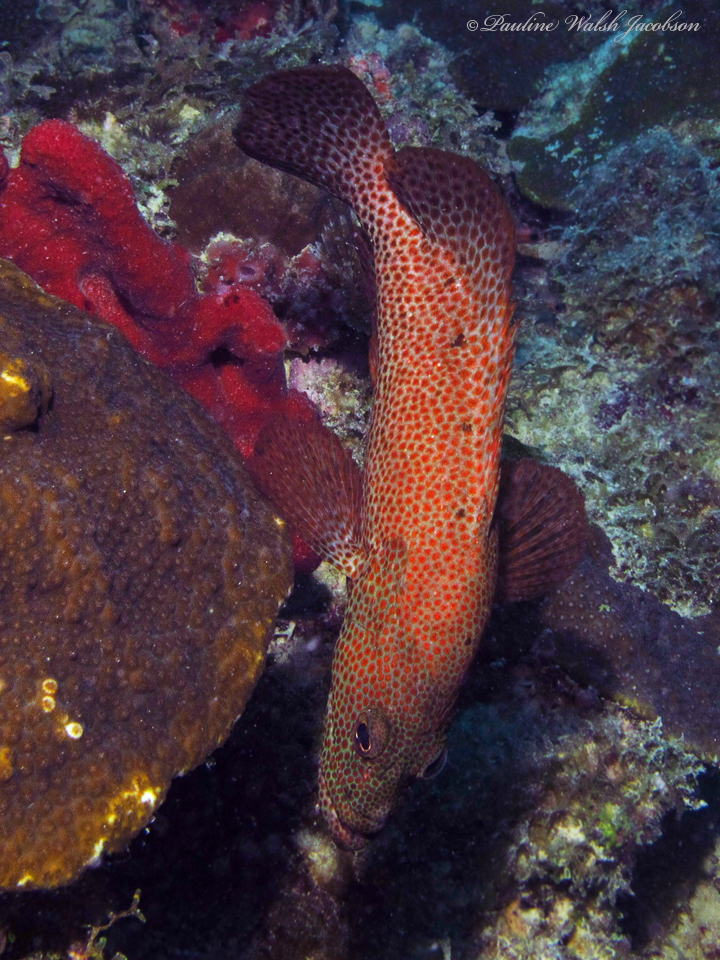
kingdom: Animalia
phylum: Chordata
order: Perciformes
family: Serranidae
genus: Cephalopholis
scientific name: Cephalopholis cruentata
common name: Graysby
